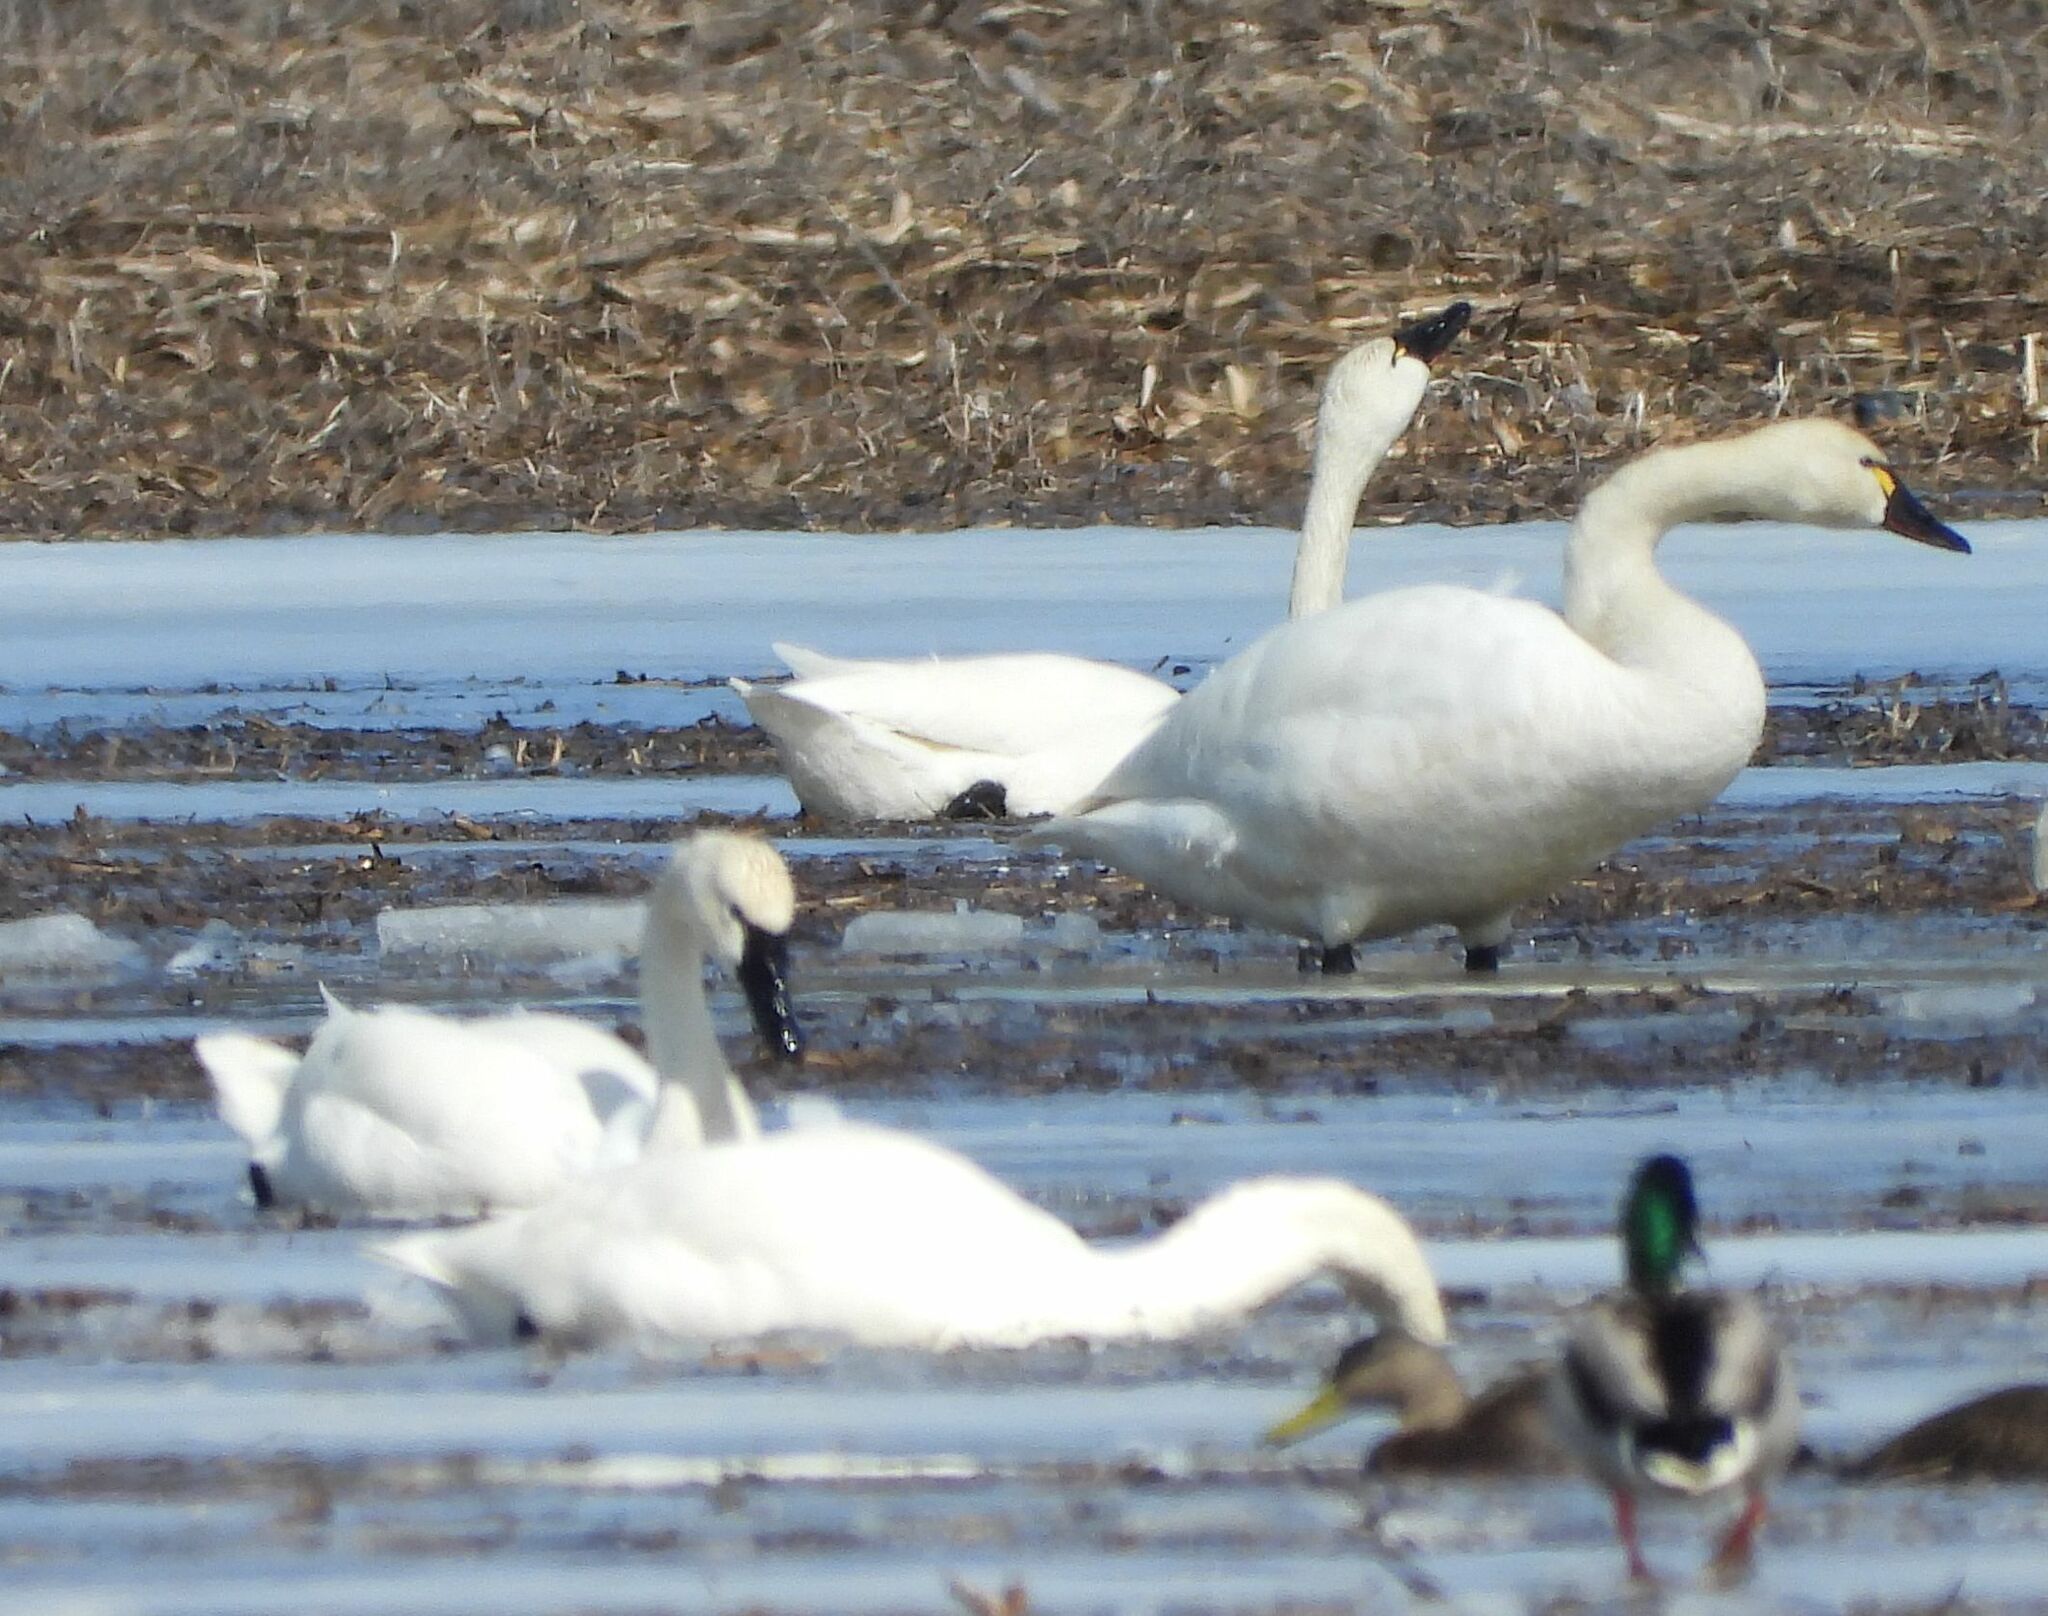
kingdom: Animalia
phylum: Chordata
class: Aves
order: Anseriformes
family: Anatidae
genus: Cygnus
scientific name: Cygnus columbianus
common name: Tundra swan
